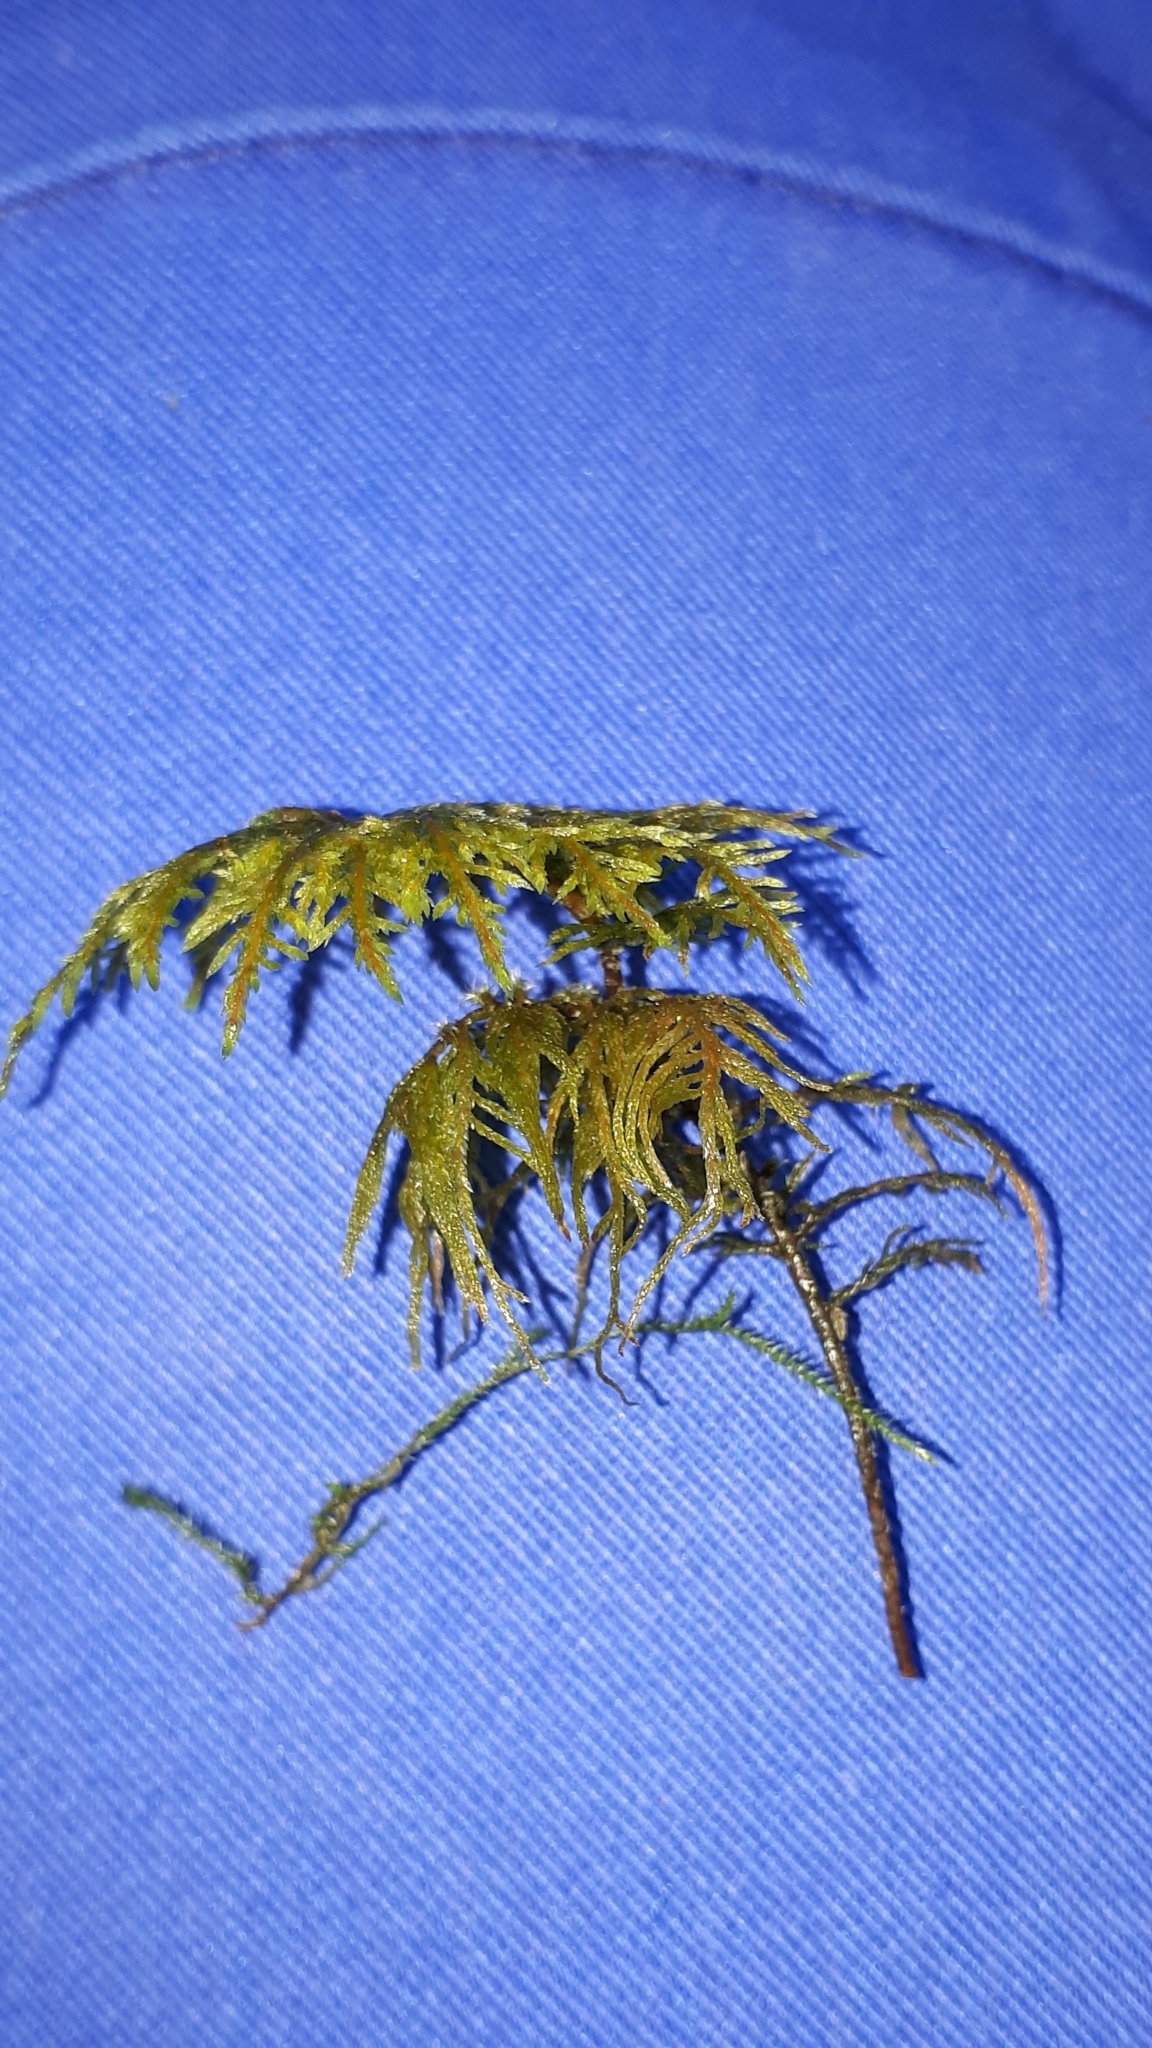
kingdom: Plantae
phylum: Bryophyta
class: Bryopsida
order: Hypnales
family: Hylocomiaceae
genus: Hylocomium
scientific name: Hylocomium splendens
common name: Stairstep moss
